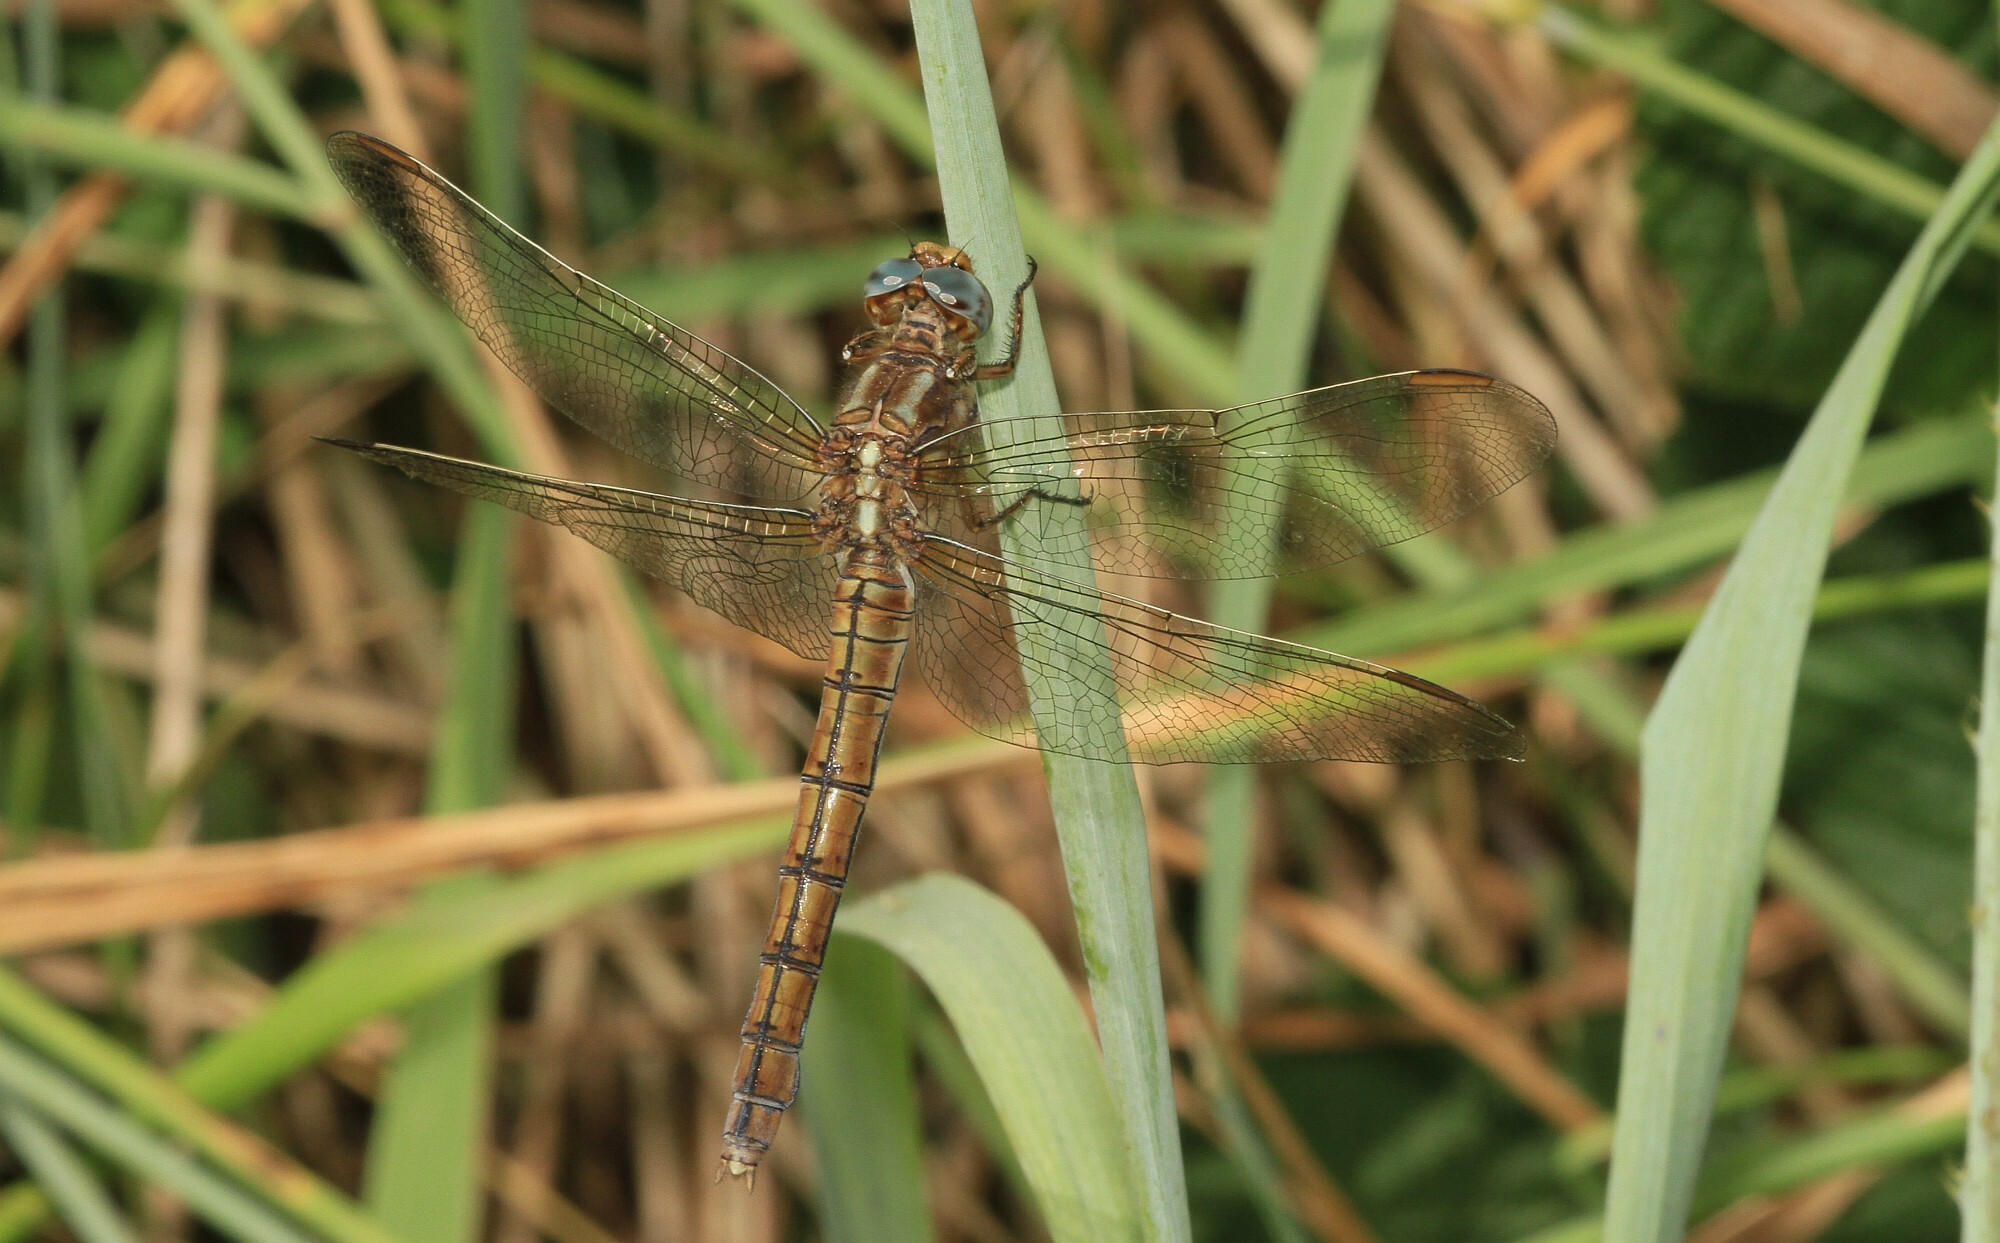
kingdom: Animalia
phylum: Arthropoda
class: Insecta
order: Odonata
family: Libellulidae
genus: Orthetrum
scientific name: Orthetrum coerulescens
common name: Keeled skimmer
